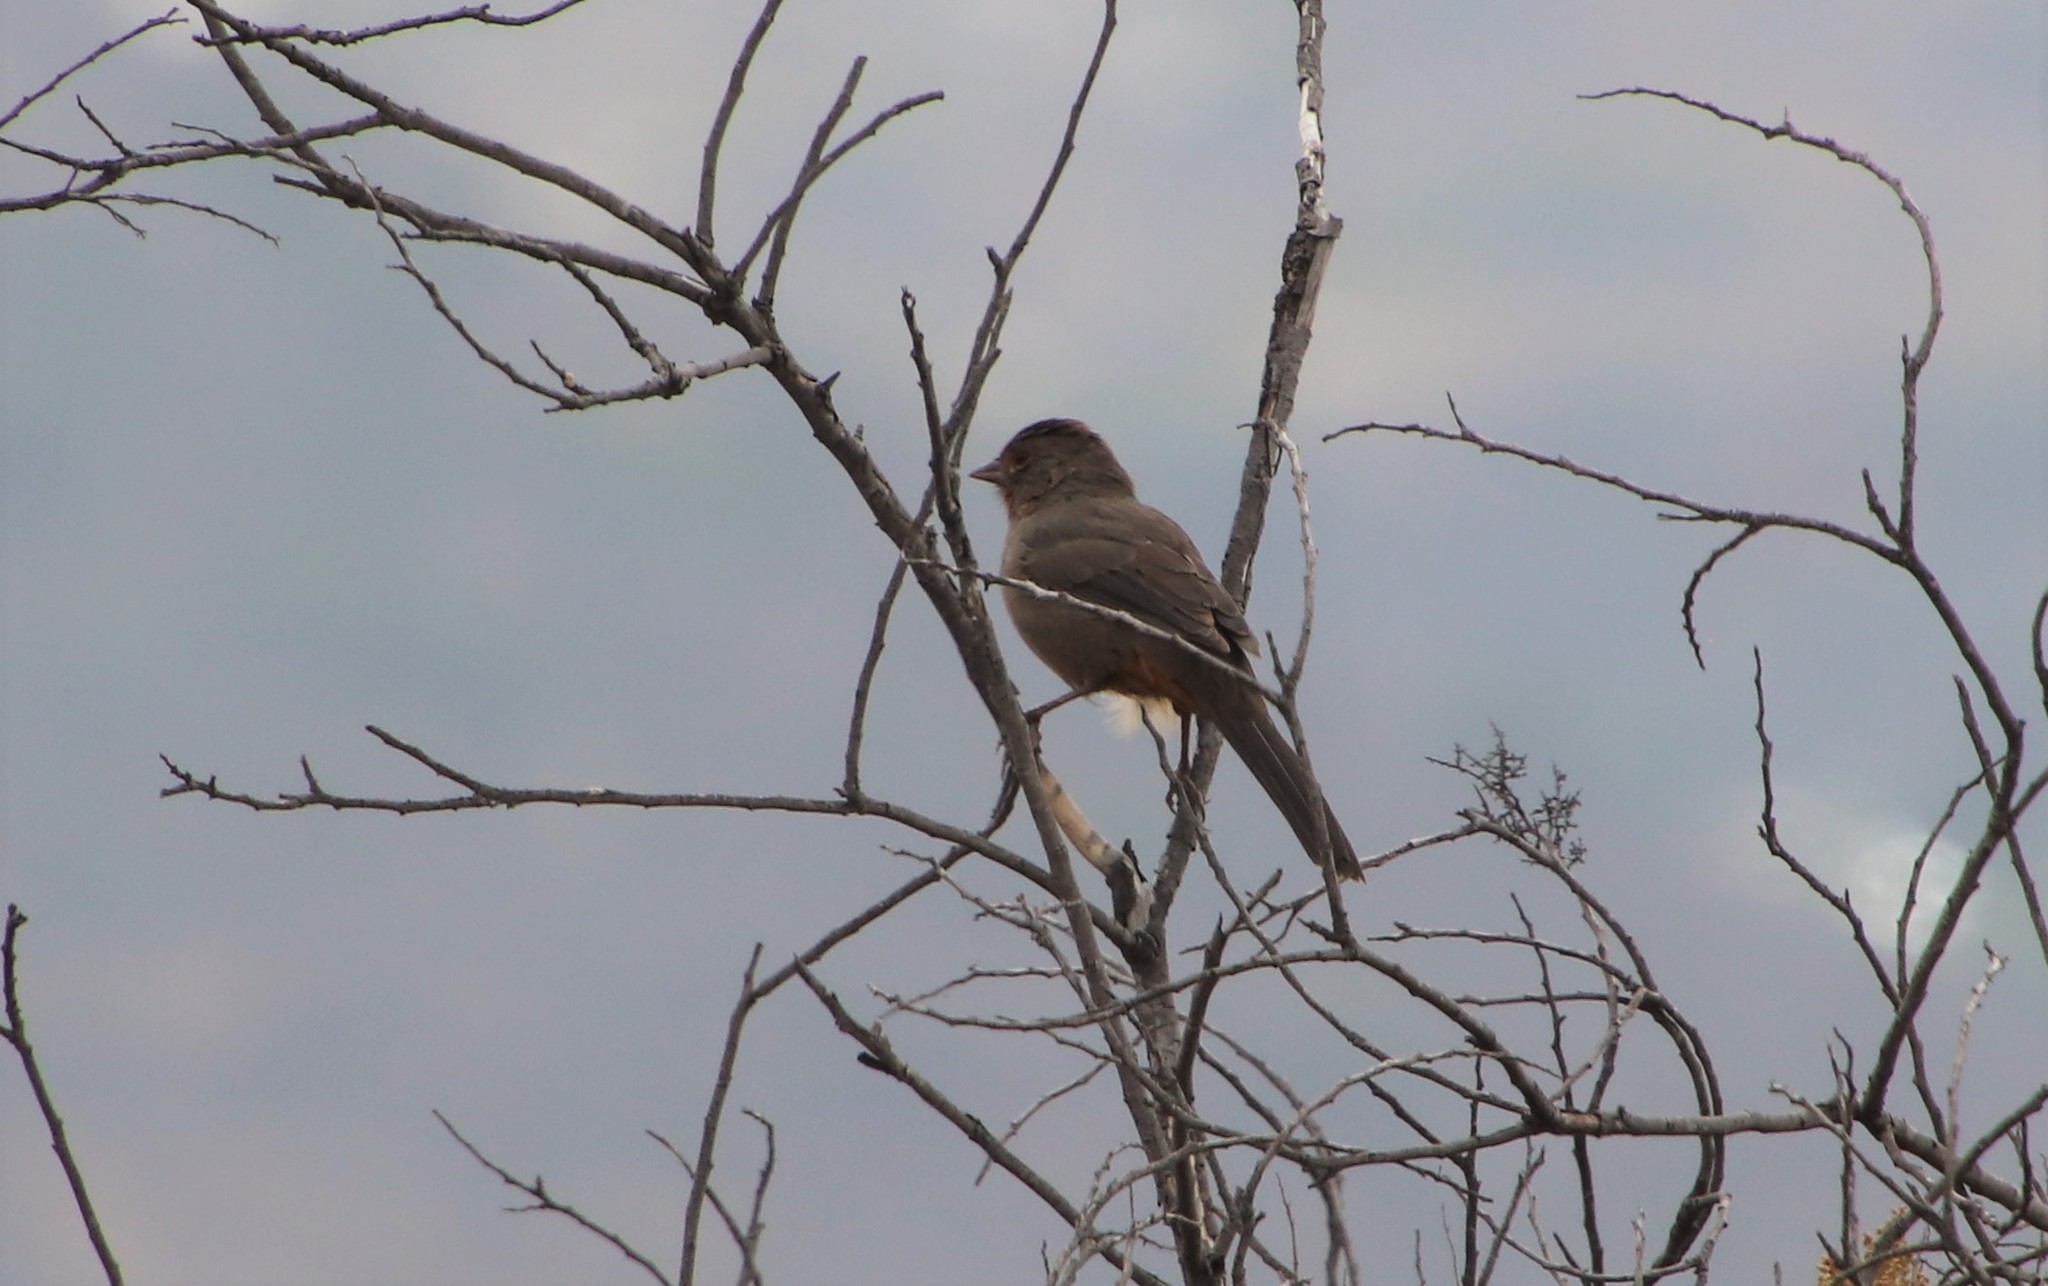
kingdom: Animalia
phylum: Chordata
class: Aves
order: Passeriformes
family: Passerellidae
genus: Melozone
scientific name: Melozone crissalis
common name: California towhee
